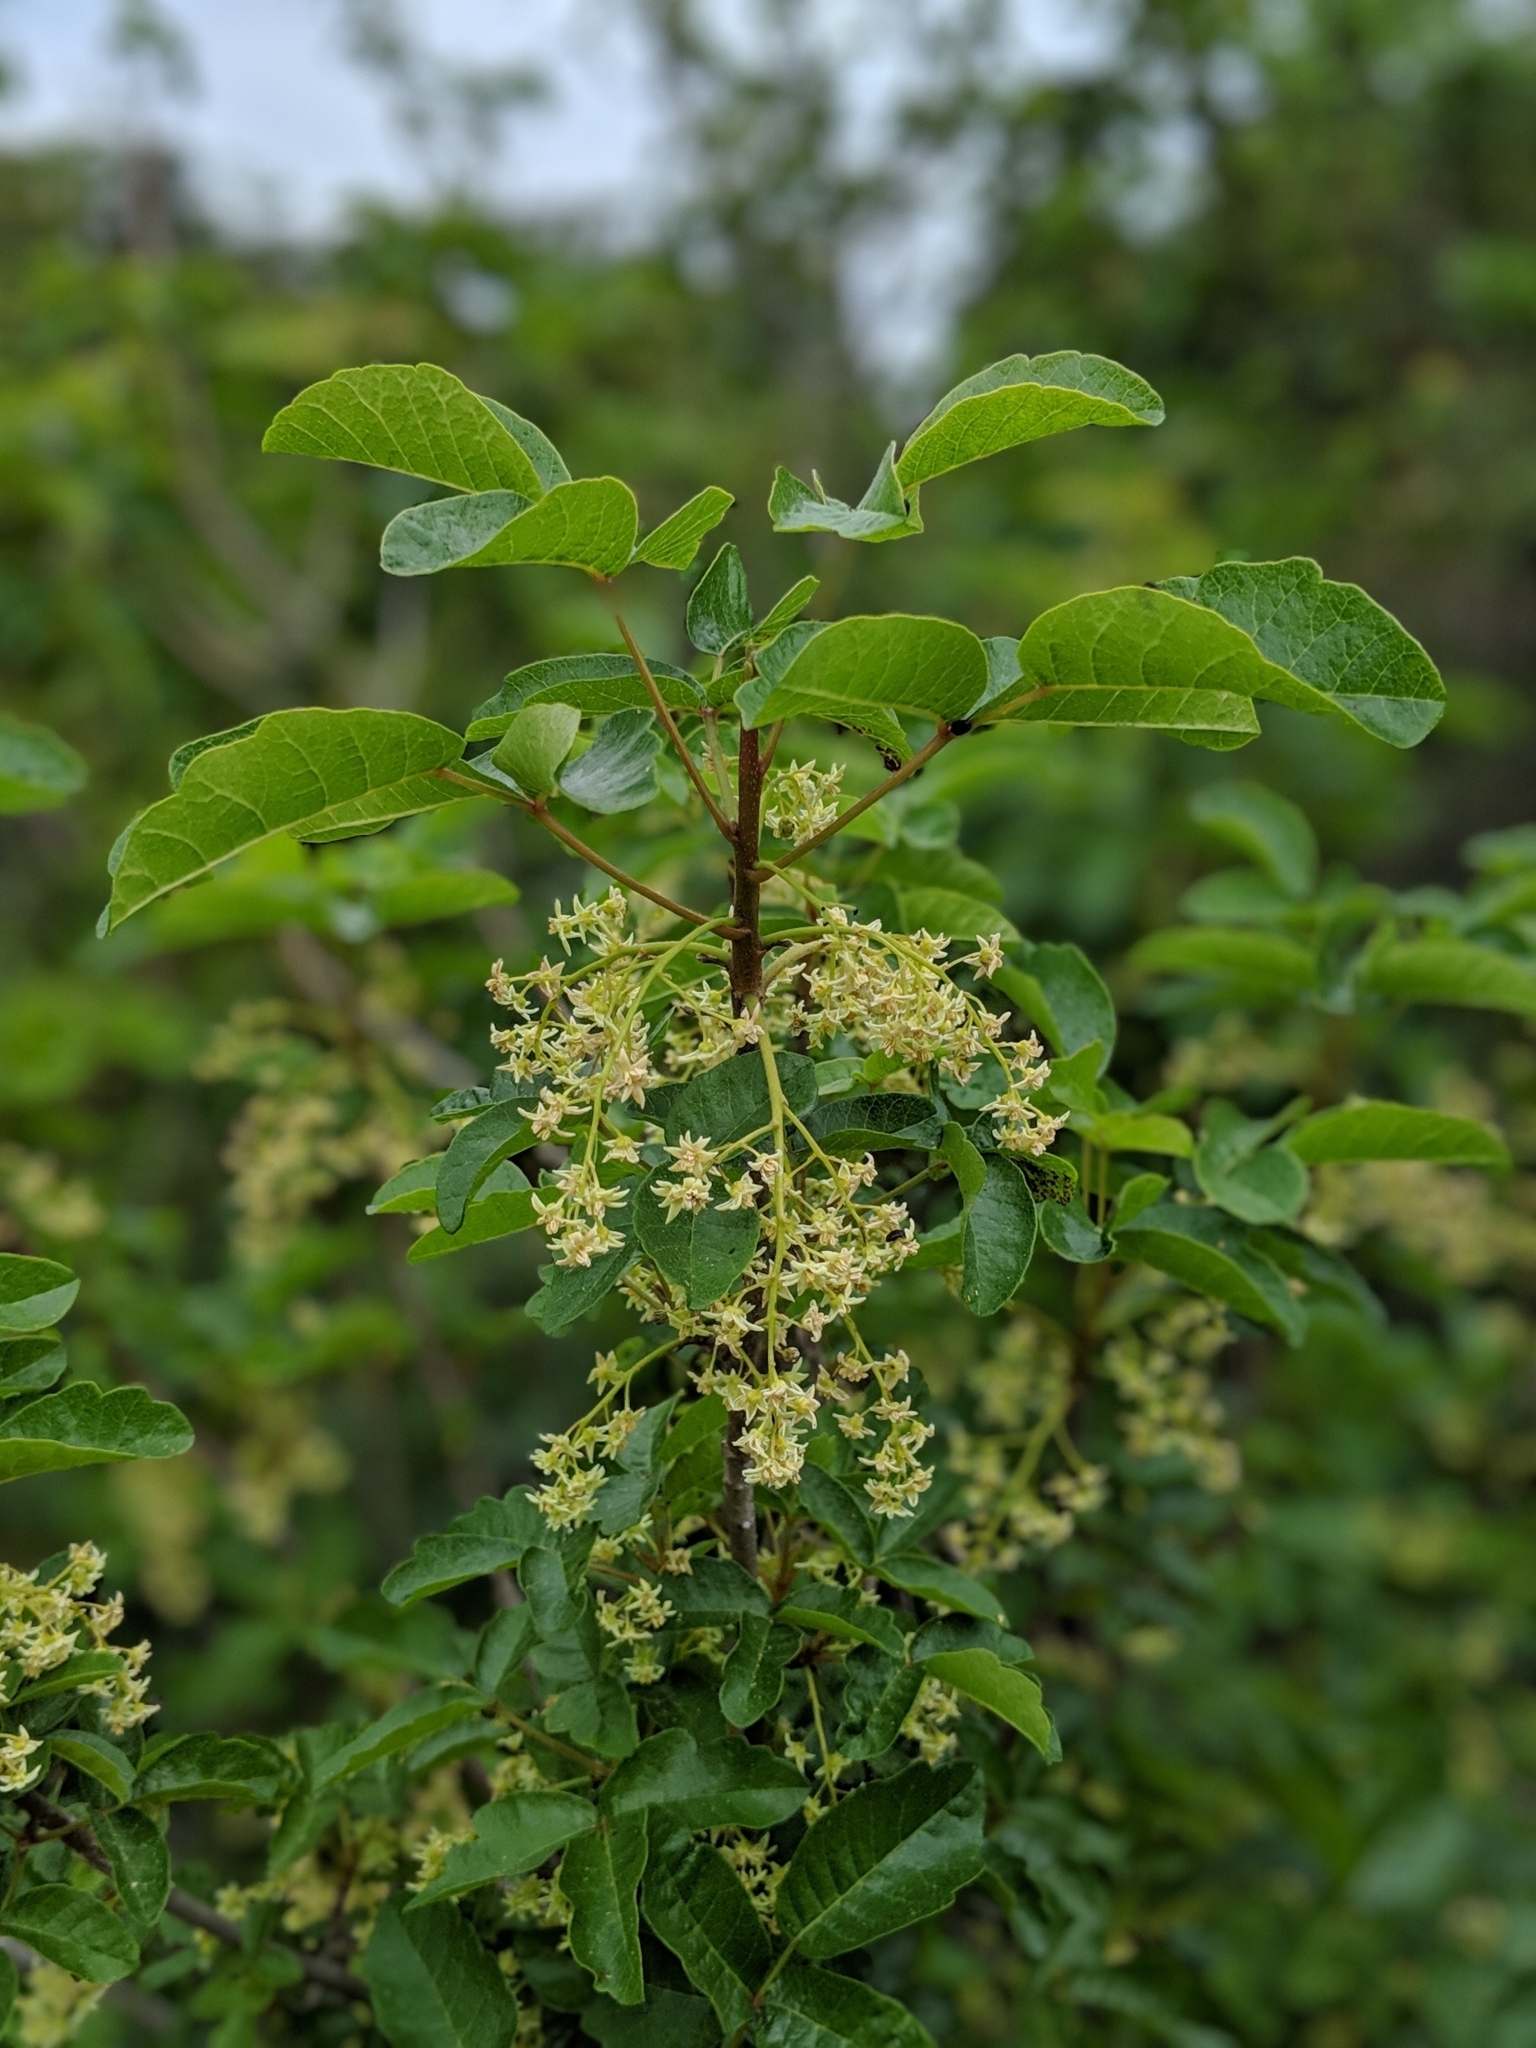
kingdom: Plantae
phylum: Tracheophyta
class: Magnoliopsida
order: Sapindales
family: Anacardiaceae
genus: Toxicodendron
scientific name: Toxicodendron diversilobum
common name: Pacific poison-oak
